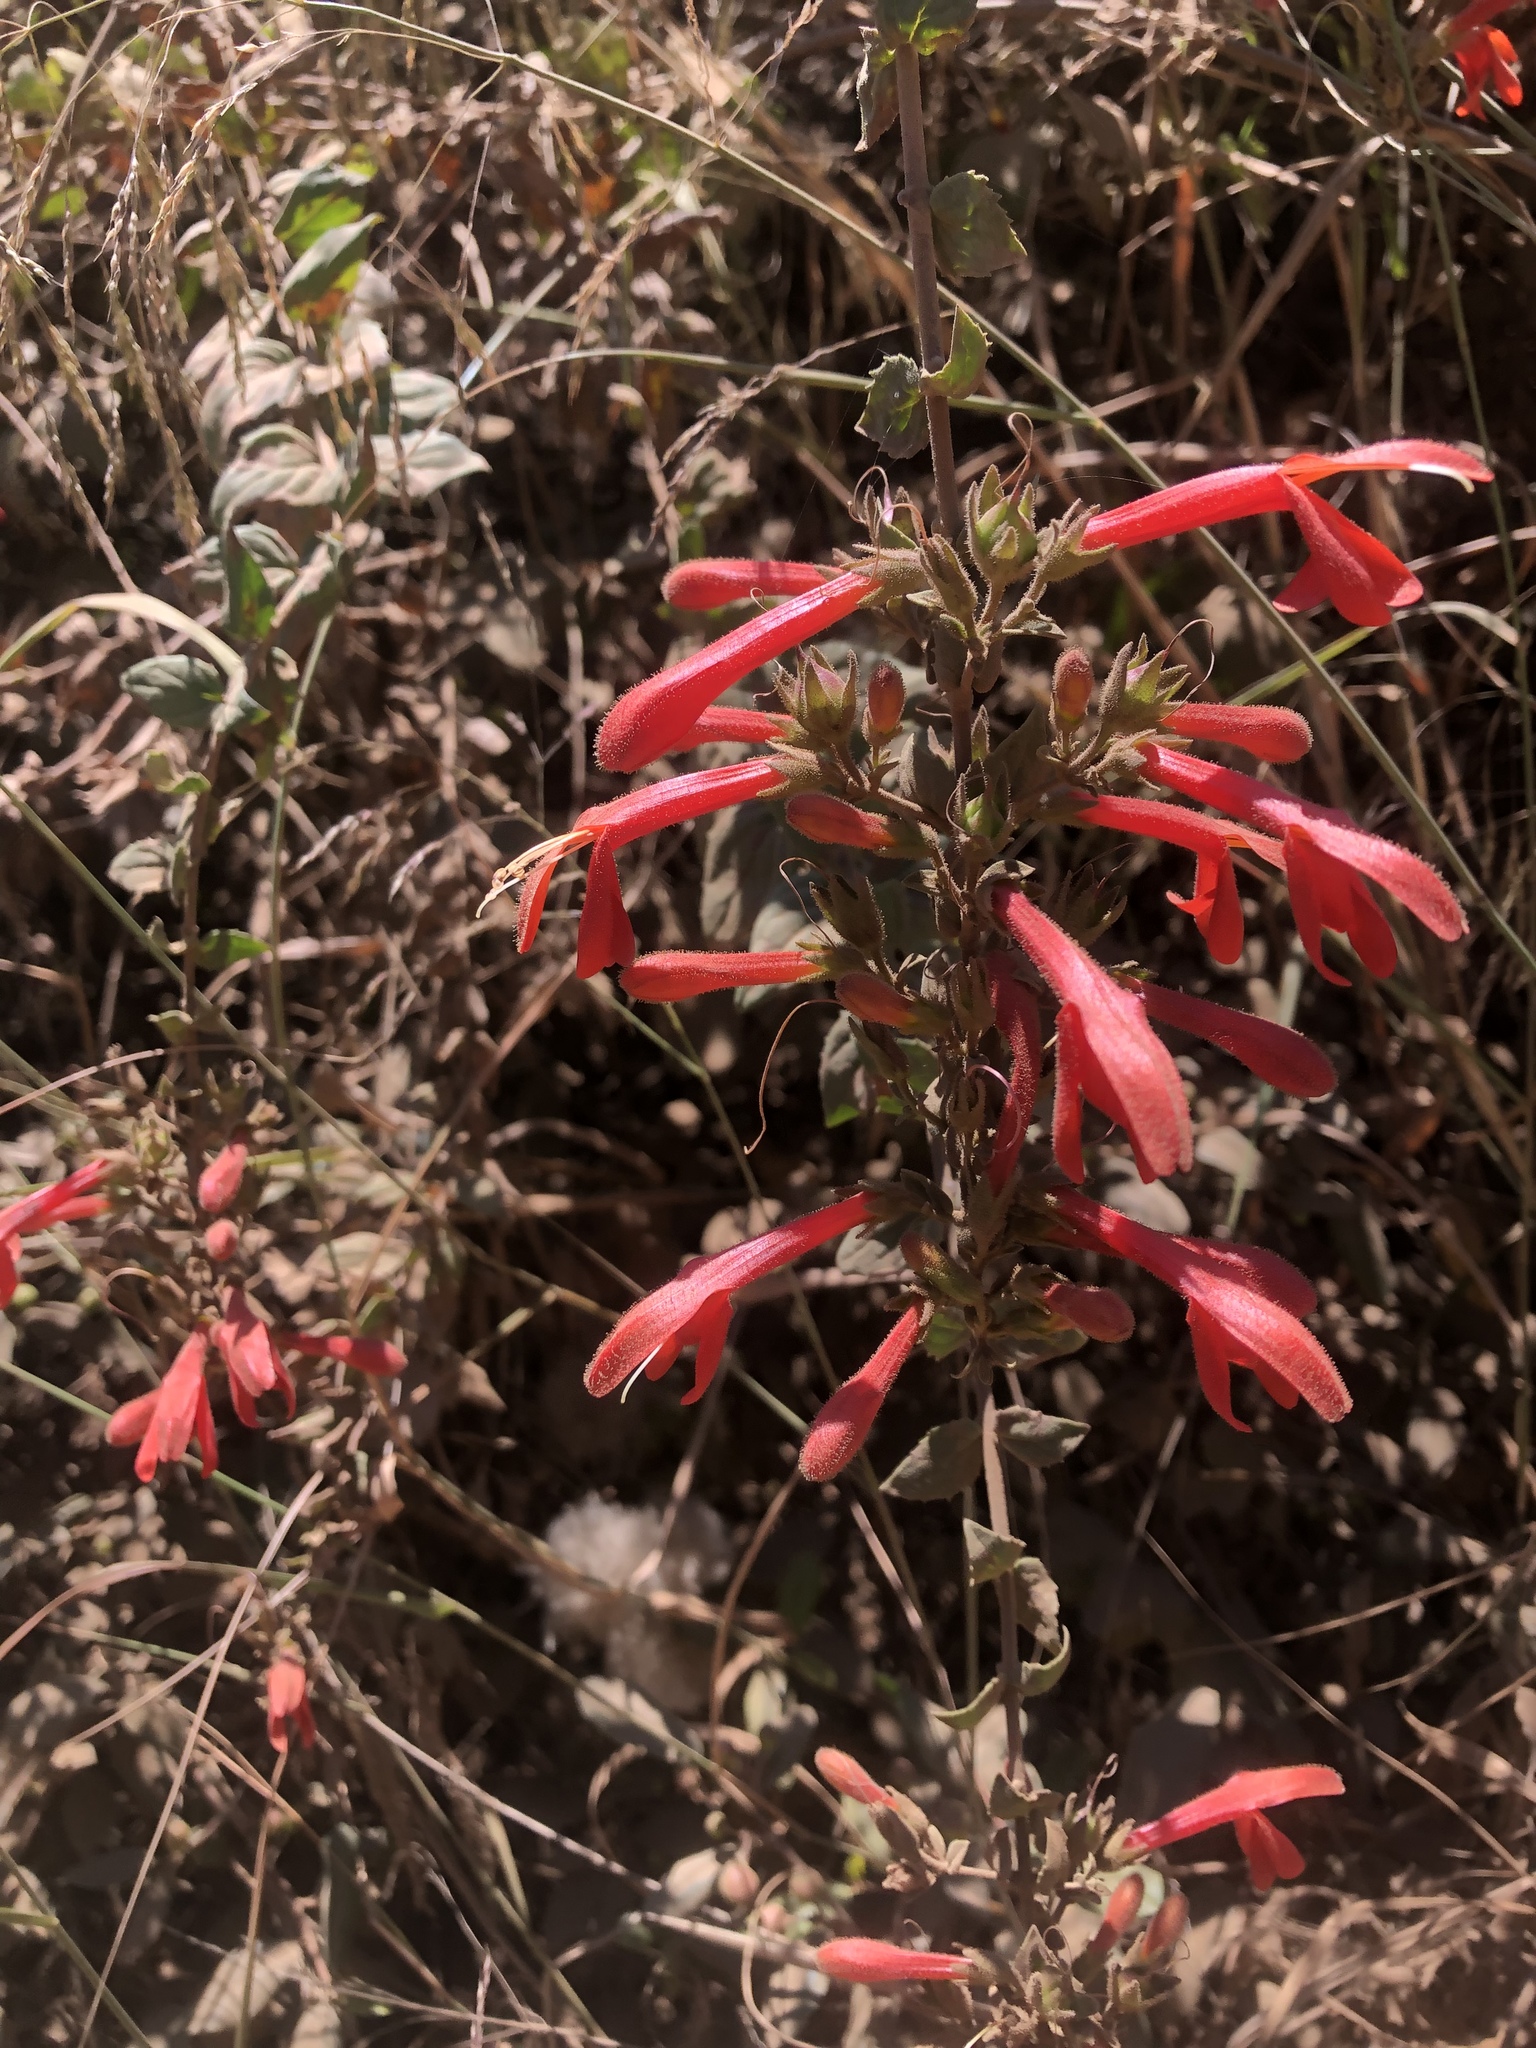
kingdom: Plantae
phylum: Tracheophyta
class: Magnoliopsida
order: Lamiales
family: Plantaginaceae
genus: Keckiella
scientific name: Keckiella cordifolia
